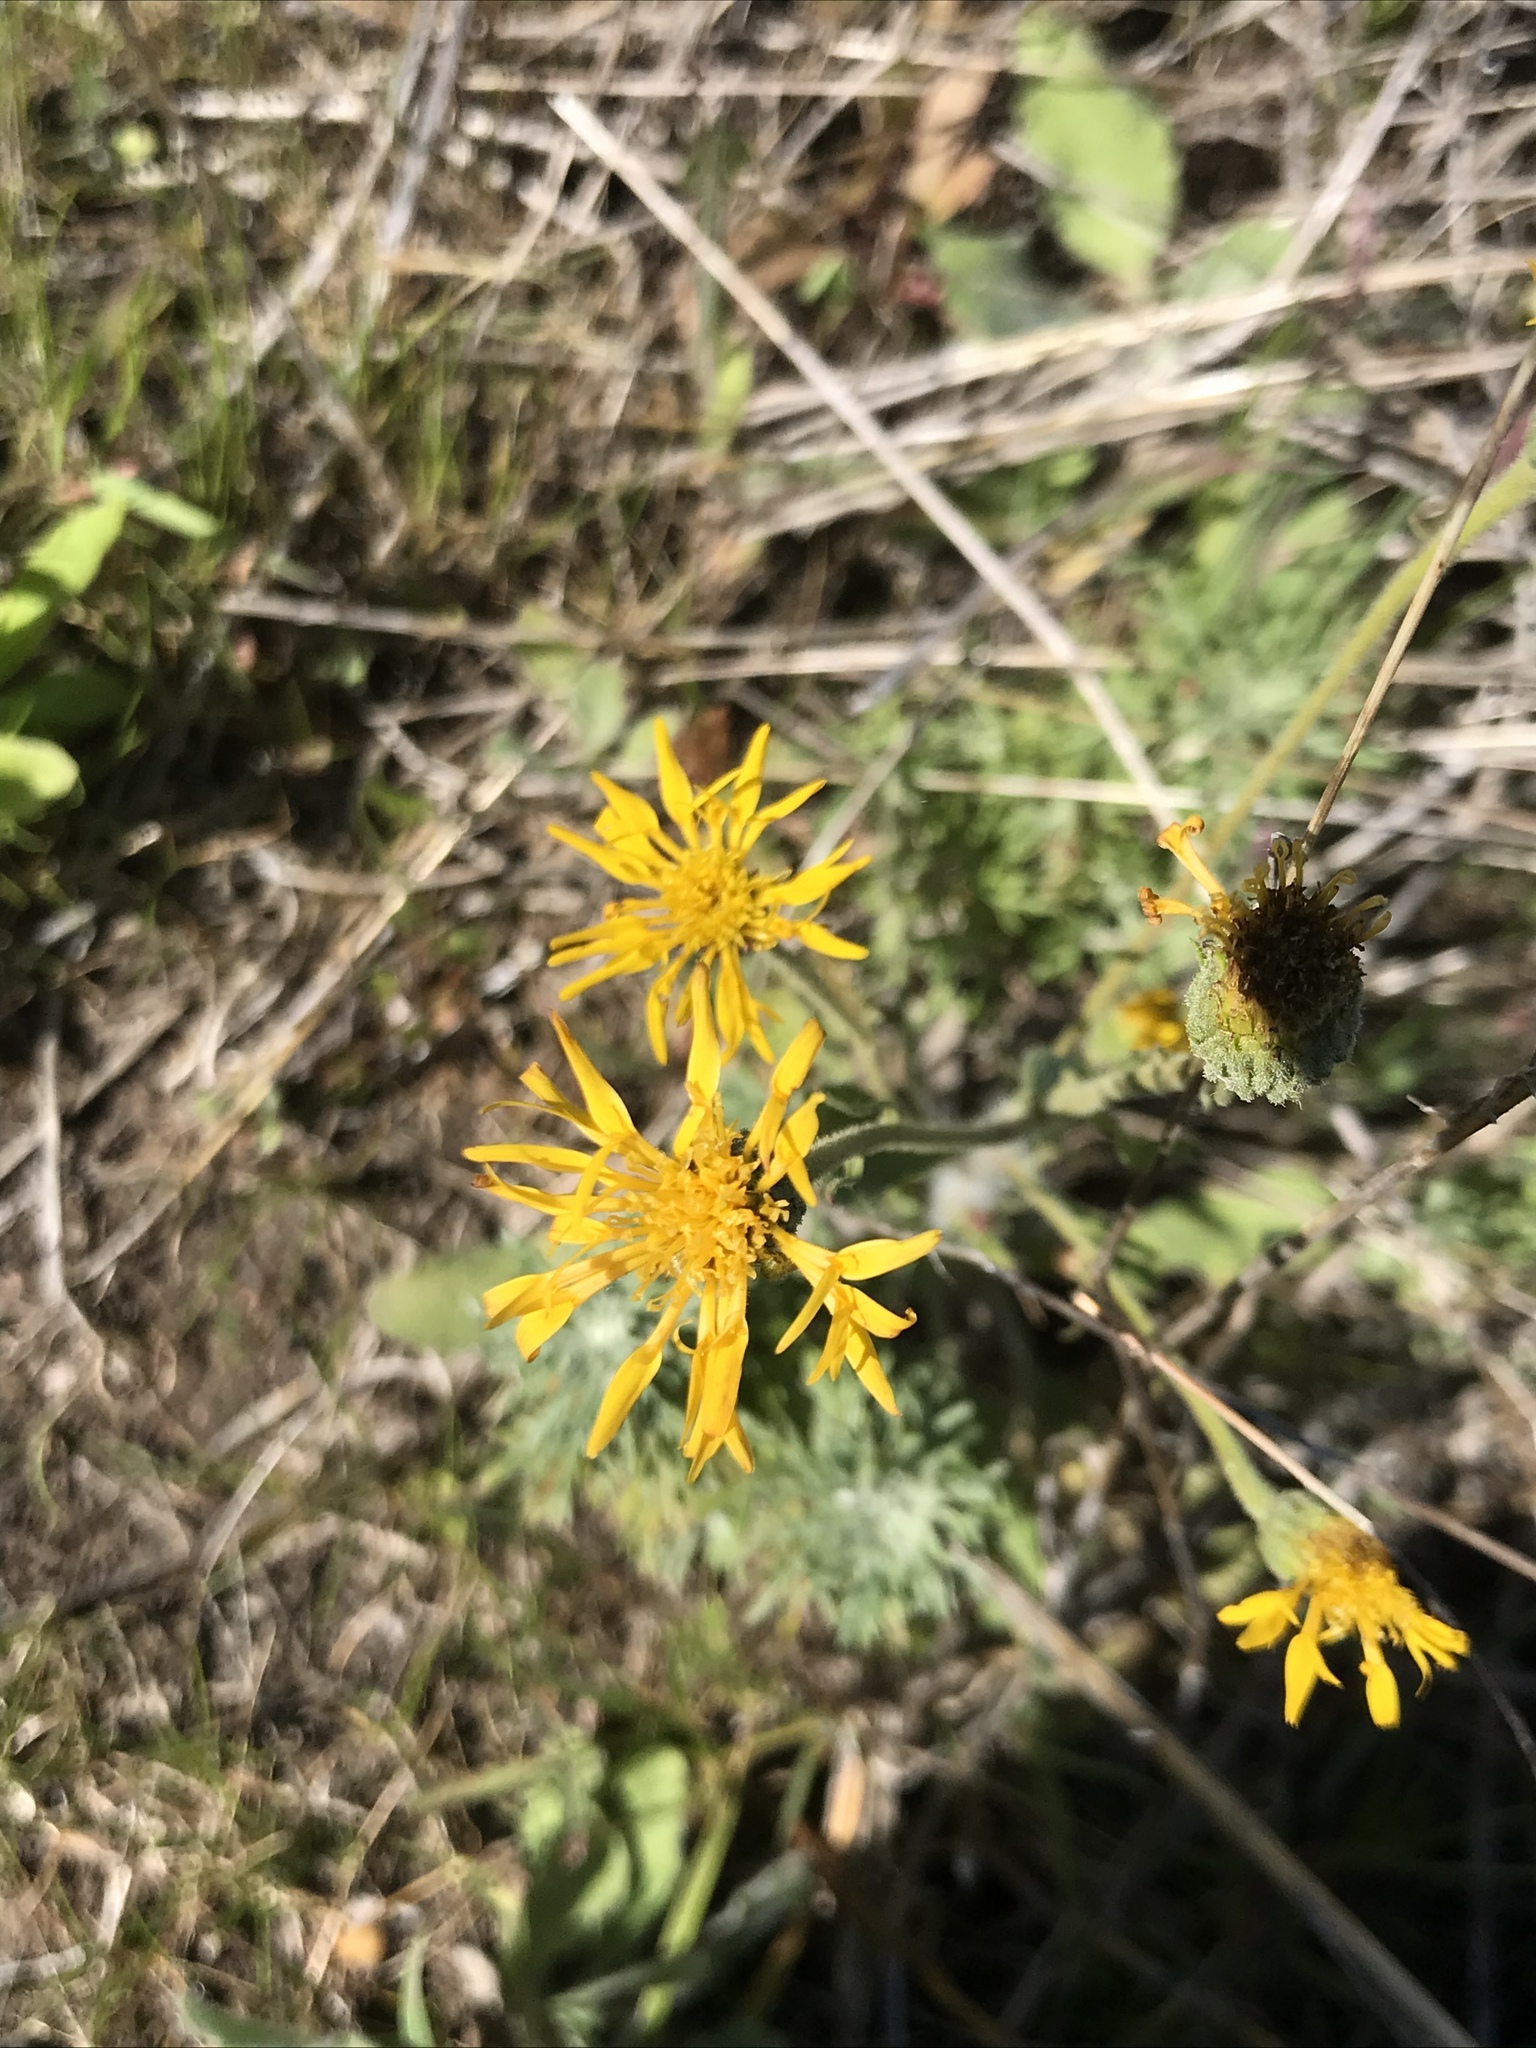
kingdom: Plantae
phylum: Tracheophyta
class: Magnoliopsida
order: Asterales
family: Asteraceae
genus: Heterotheca
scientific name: Heterotheca grandiflora
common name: Telegraphweed
